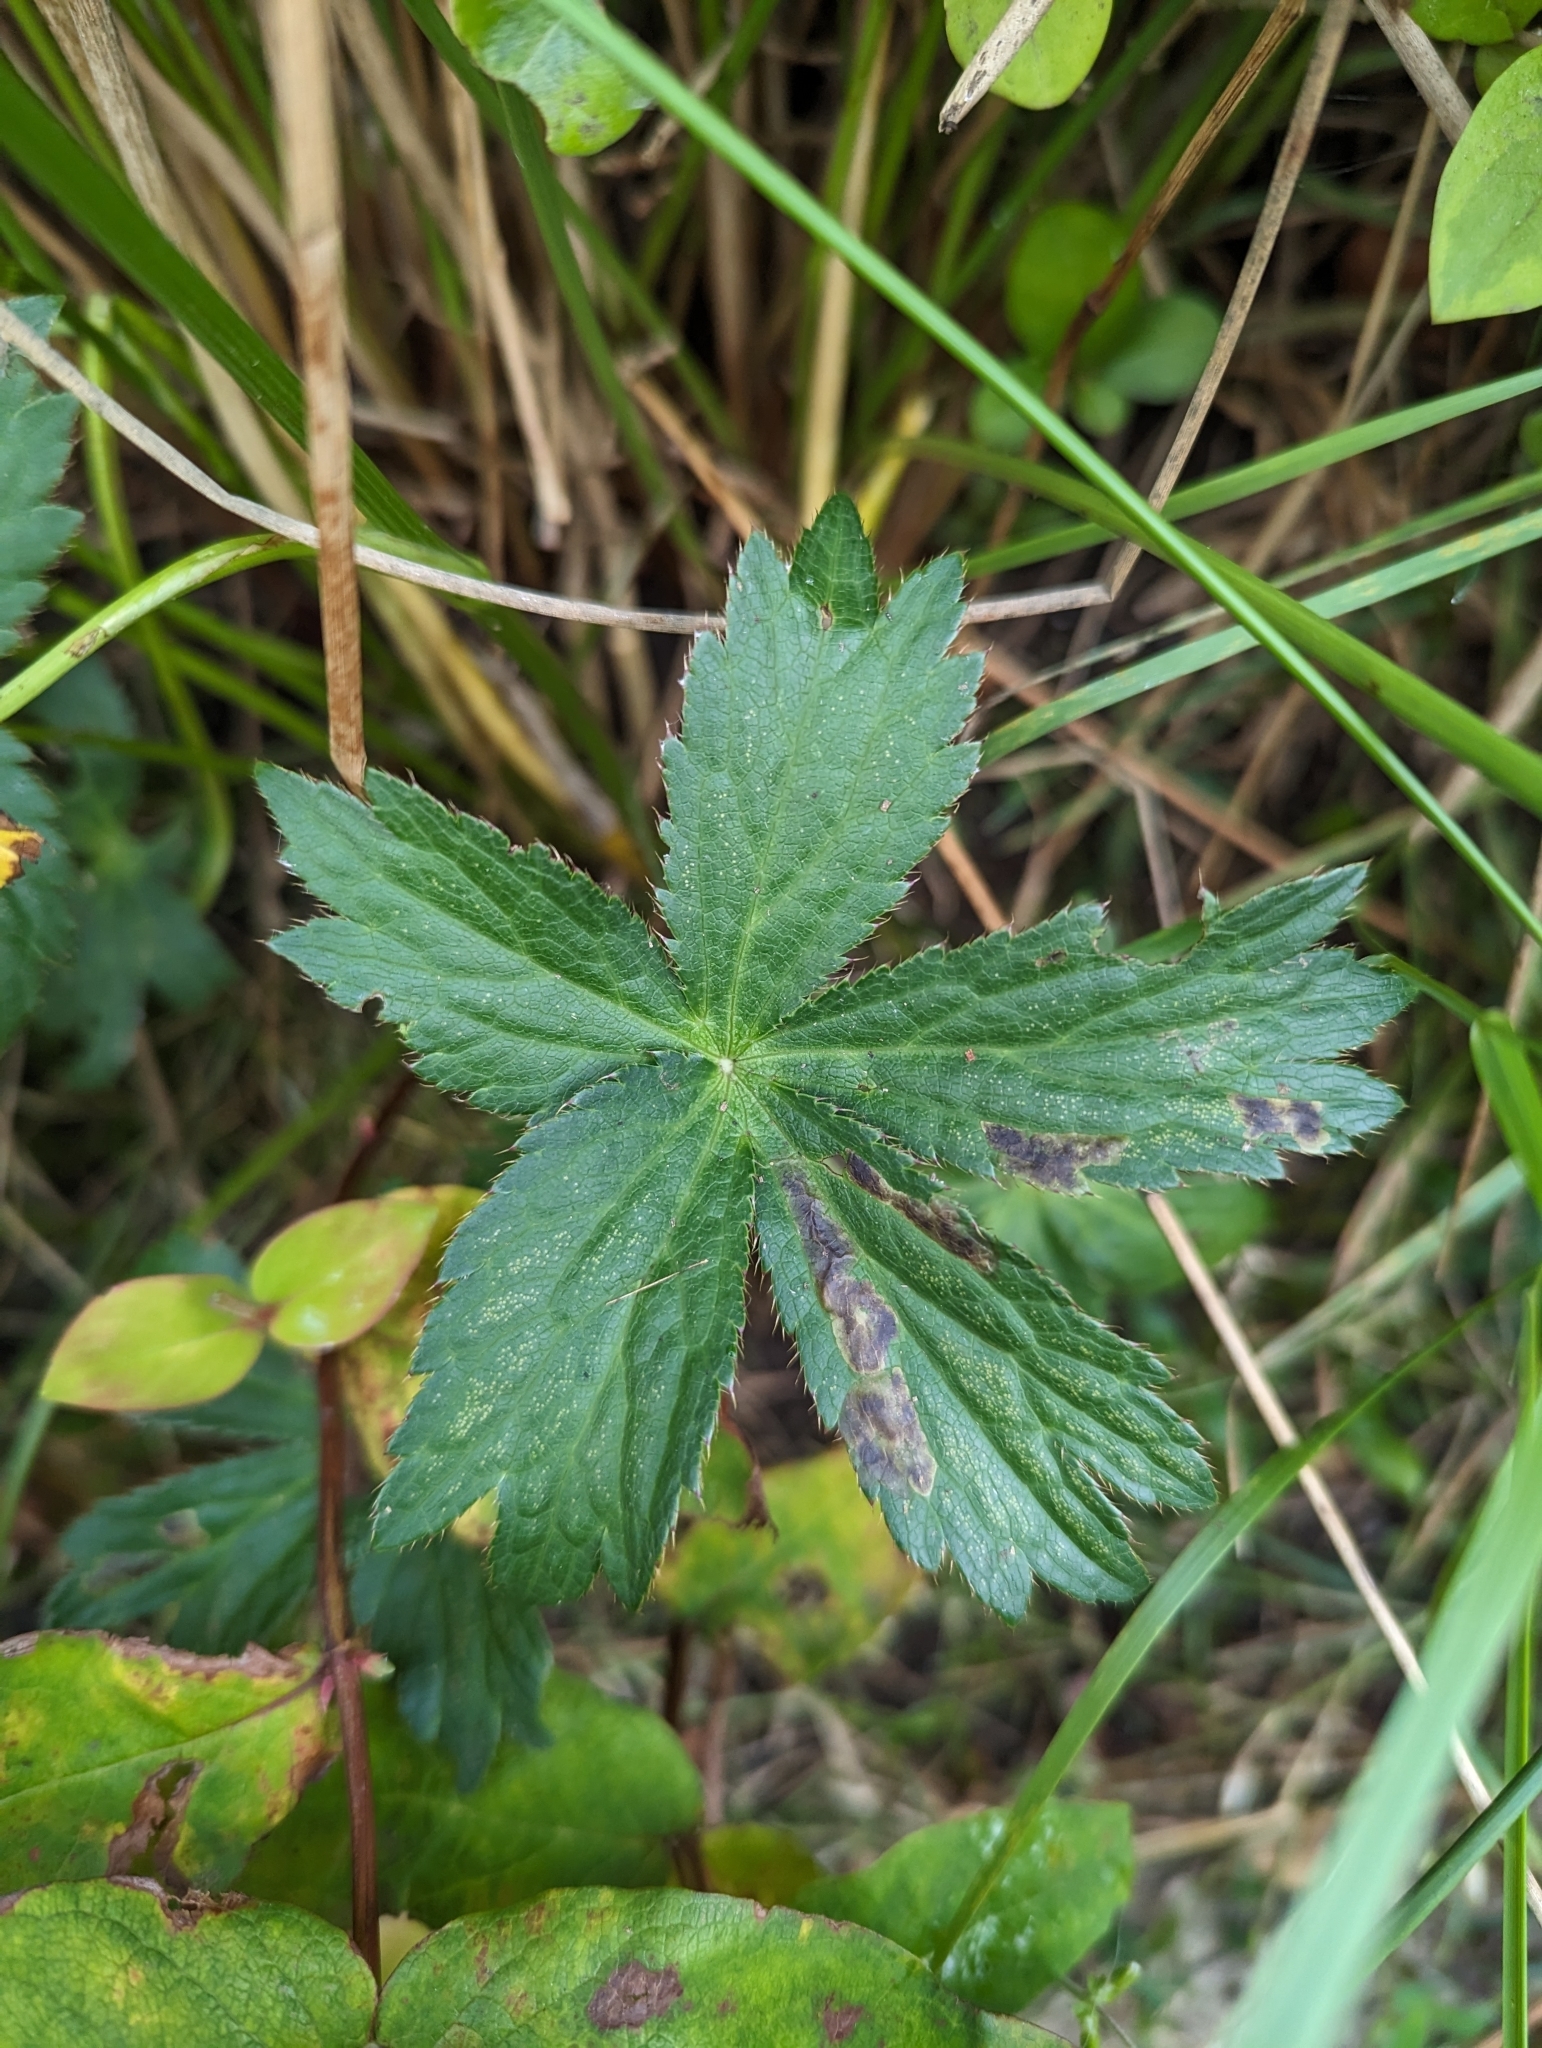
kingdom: Plantae
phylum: Tracheophyta
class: Magnoliopsida
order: Apiales
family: Apiaceae
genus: Astrantia
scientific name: Astrantia major
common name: Greater masterwort
